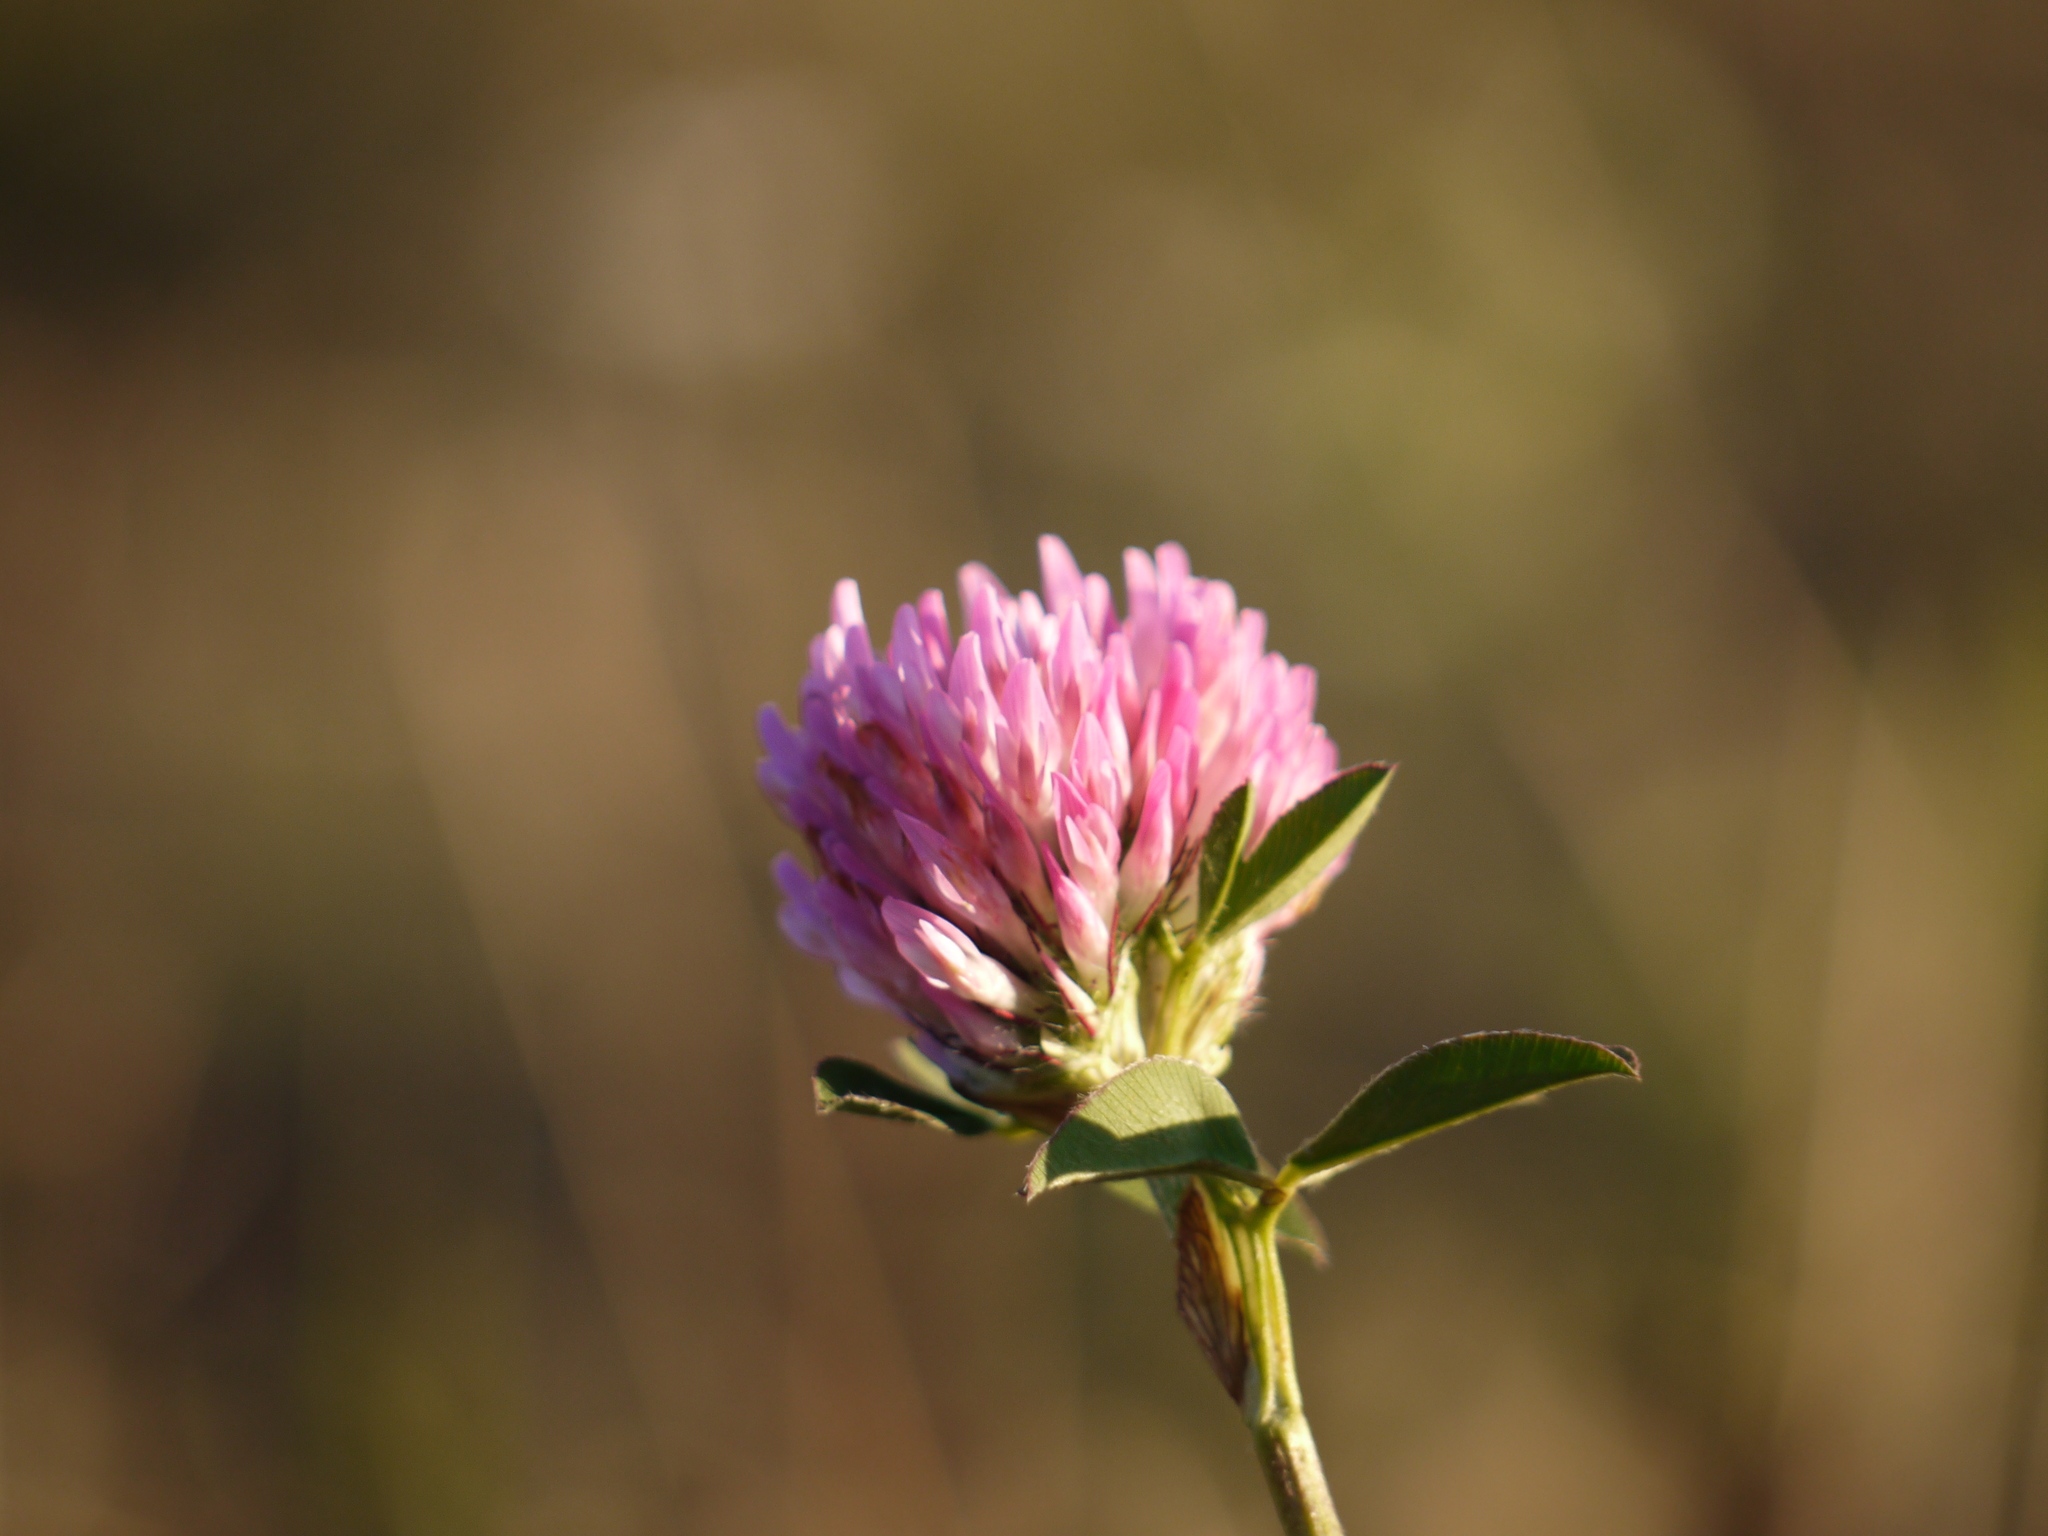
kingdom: Plantae
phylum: Tracheophyta
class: Magnoliopsida
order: Fabales
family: Fabaceae
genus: Trifolium
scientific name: Trifolium pratense
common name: Red clover
